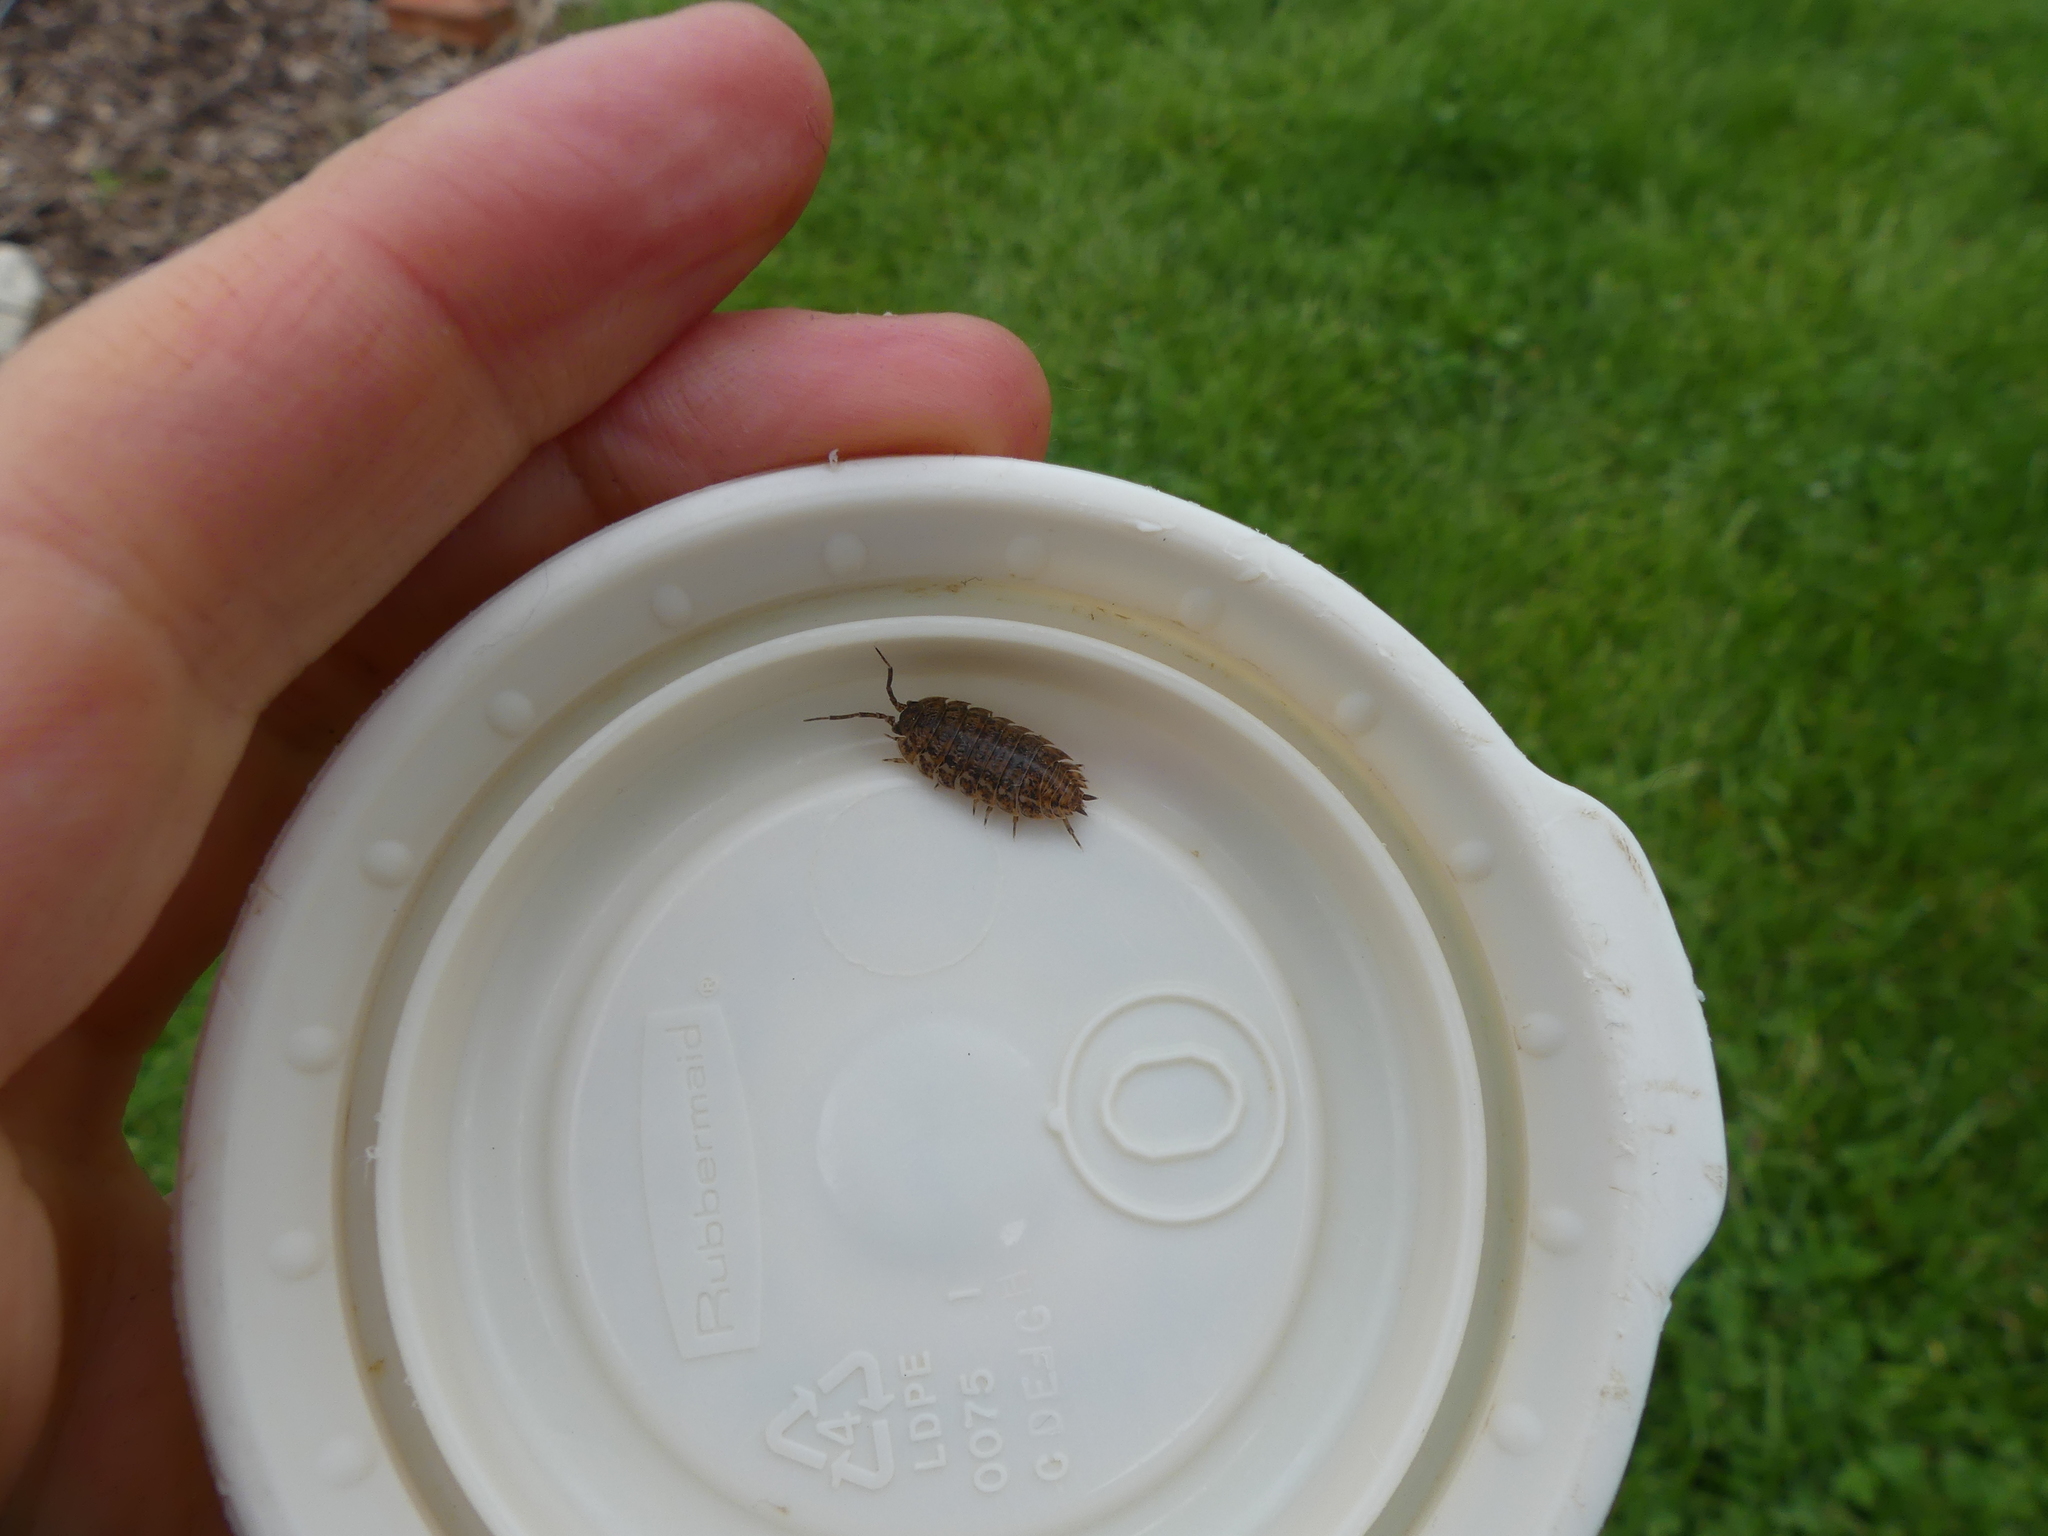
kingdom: Animalia
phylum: Arthropoda
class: Malacostraca
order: Isopoda
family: Trachelipodidae
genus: Trachelipus
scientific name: Trachelipus rathkii
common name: Isopod
